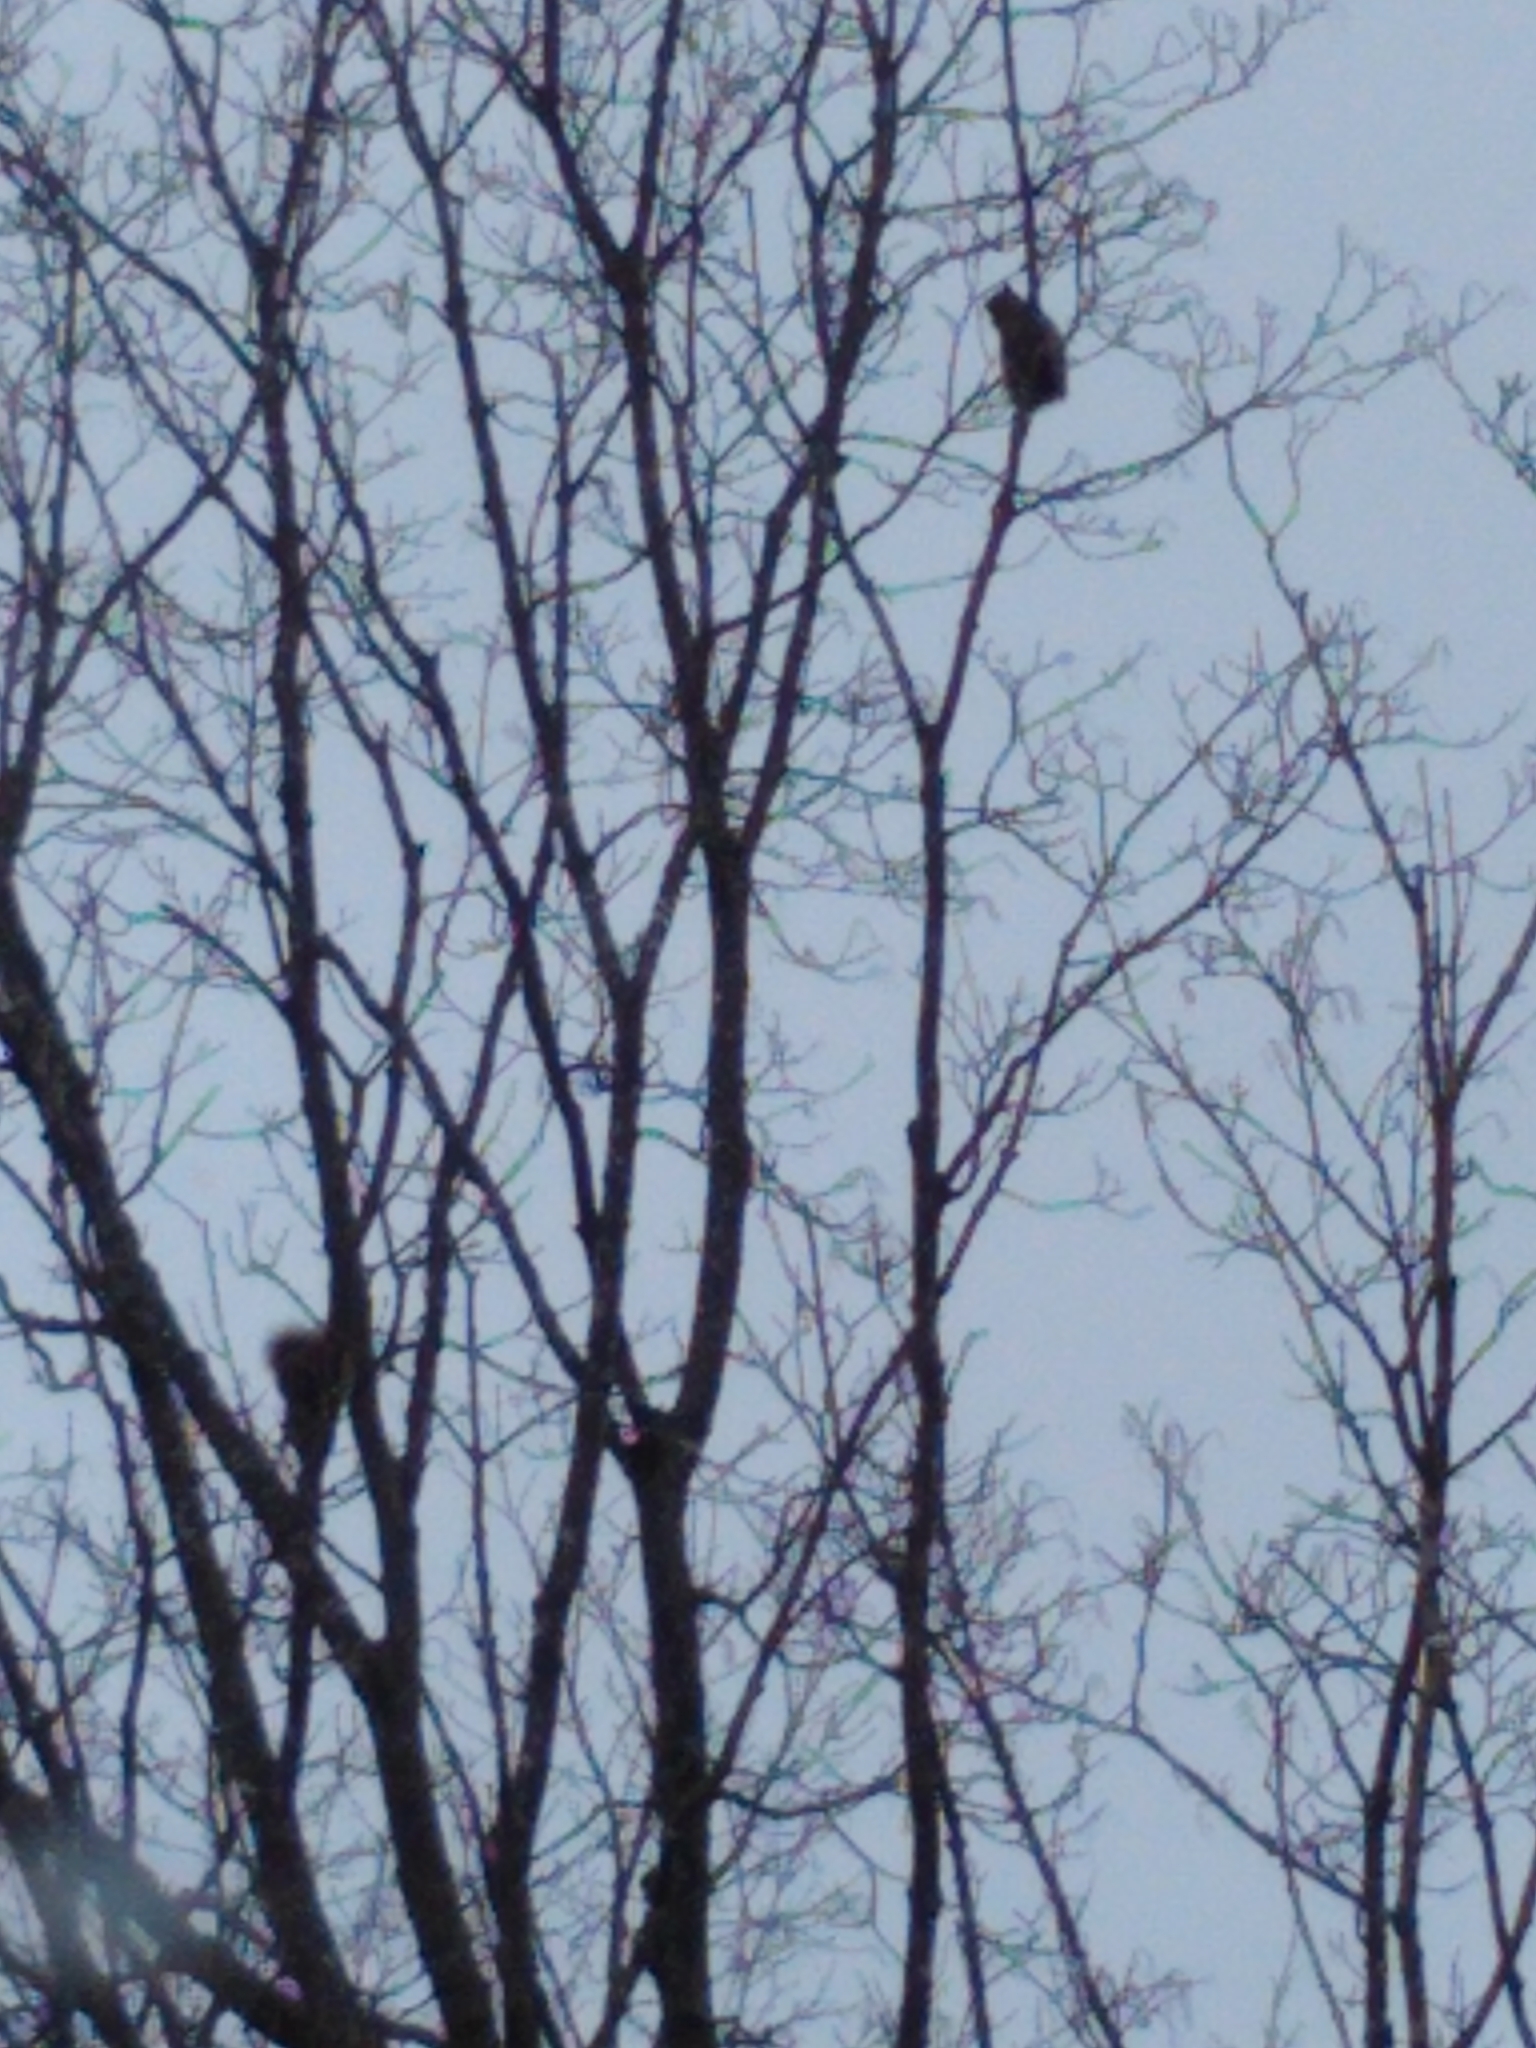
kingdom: Animalia
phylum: Chordata
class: Mammalia
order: Rodentia
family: Sciuridae
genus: Sciurus
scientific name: Sciurus carolinensis
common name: Eastern gray squirrel
